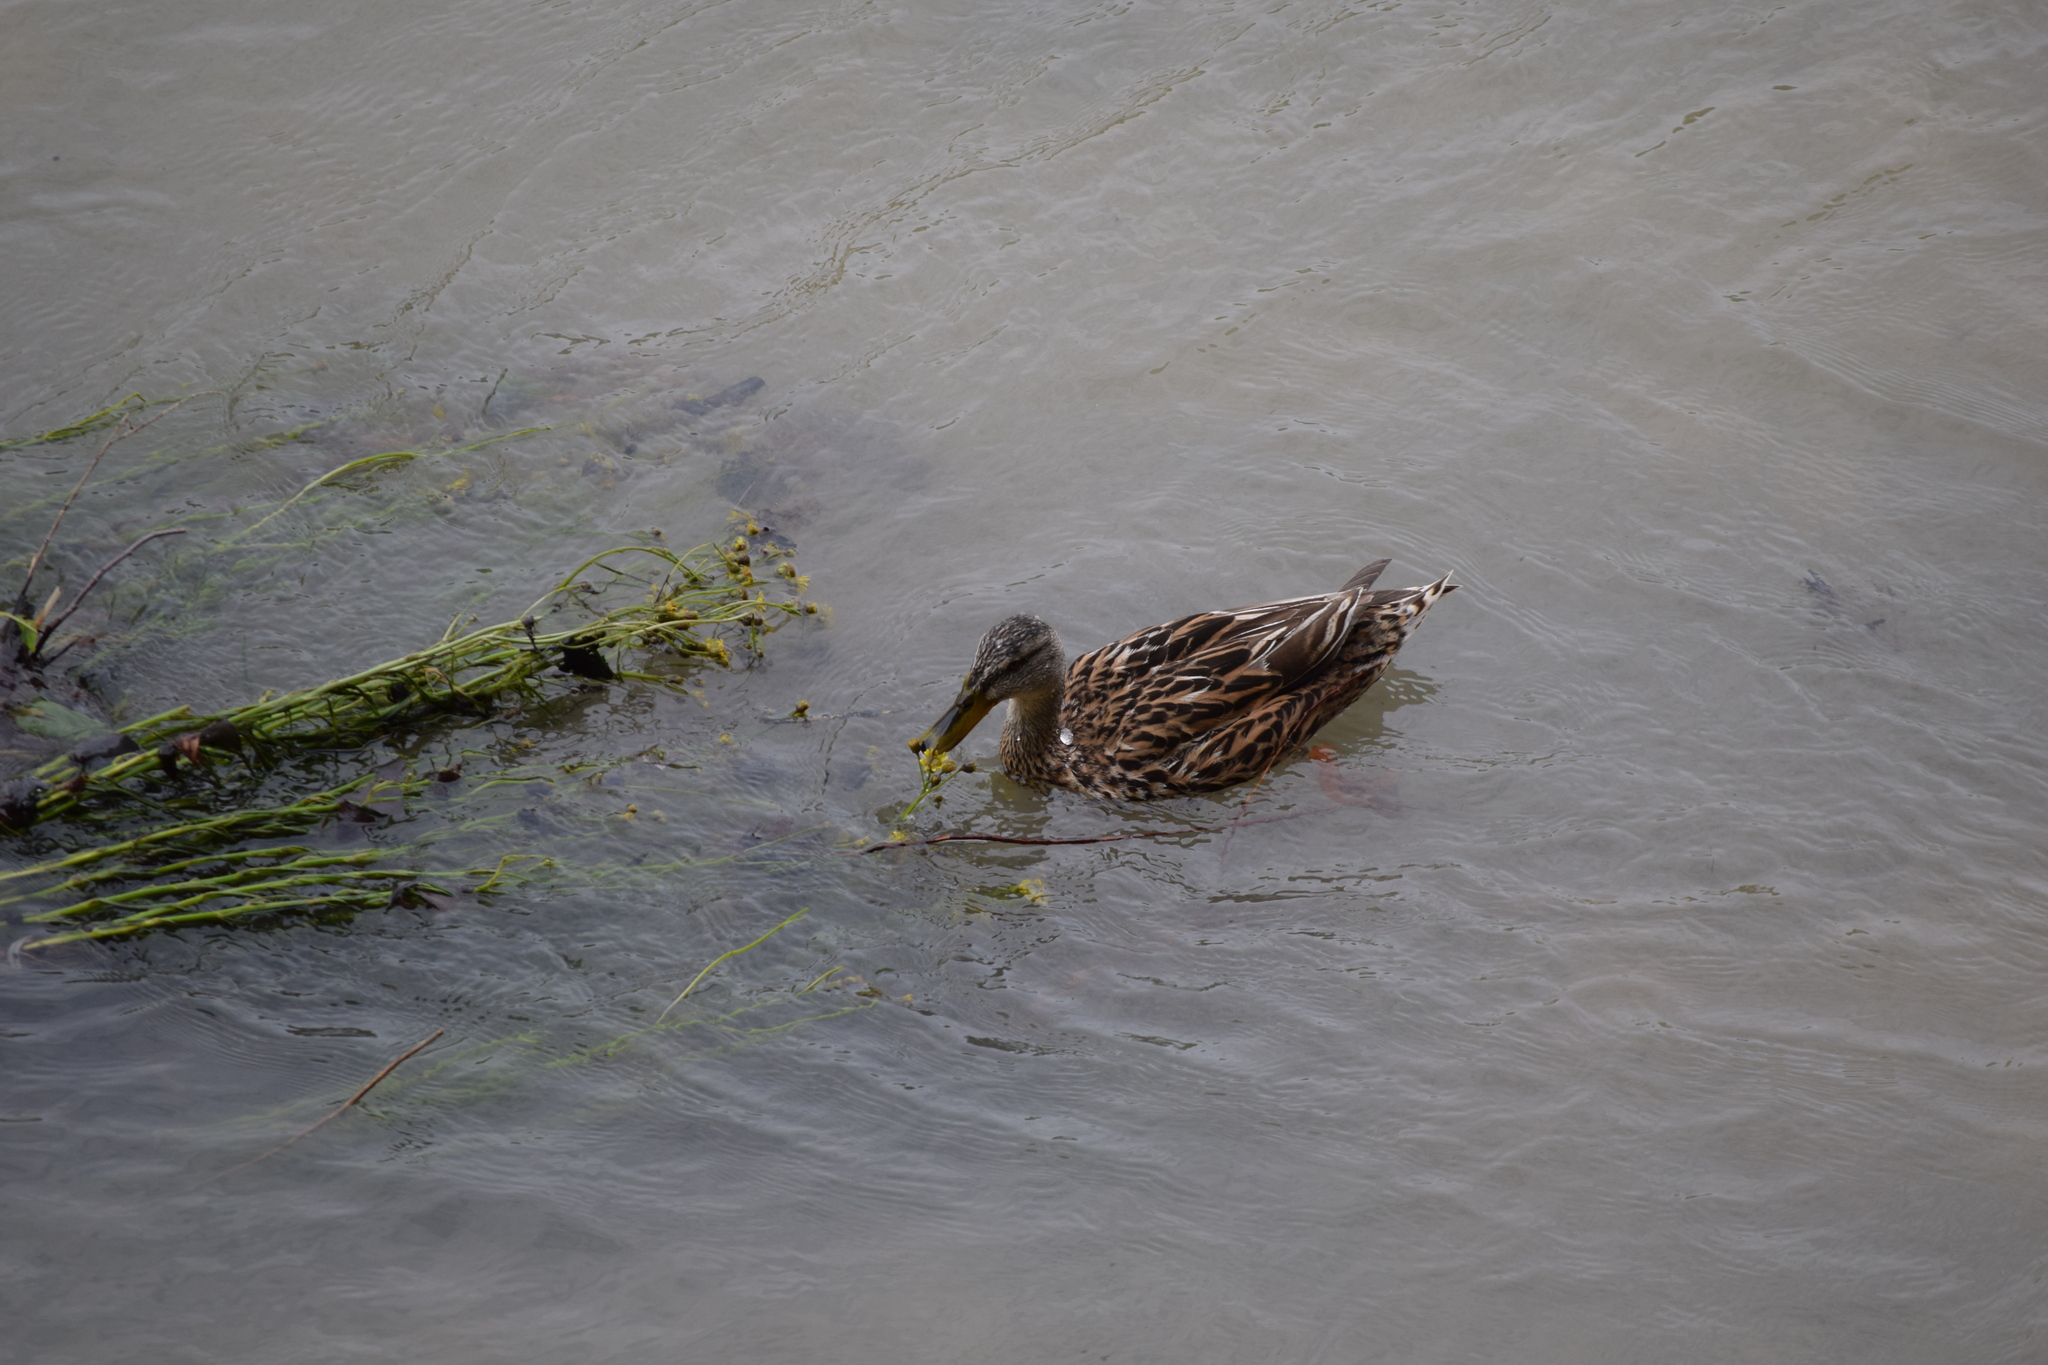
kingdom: Animalia
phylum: Chordata
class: Aves
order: Anseriformes
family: Anatidae
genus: Anas
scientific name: Anas platyrhynchos
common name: Mallard
